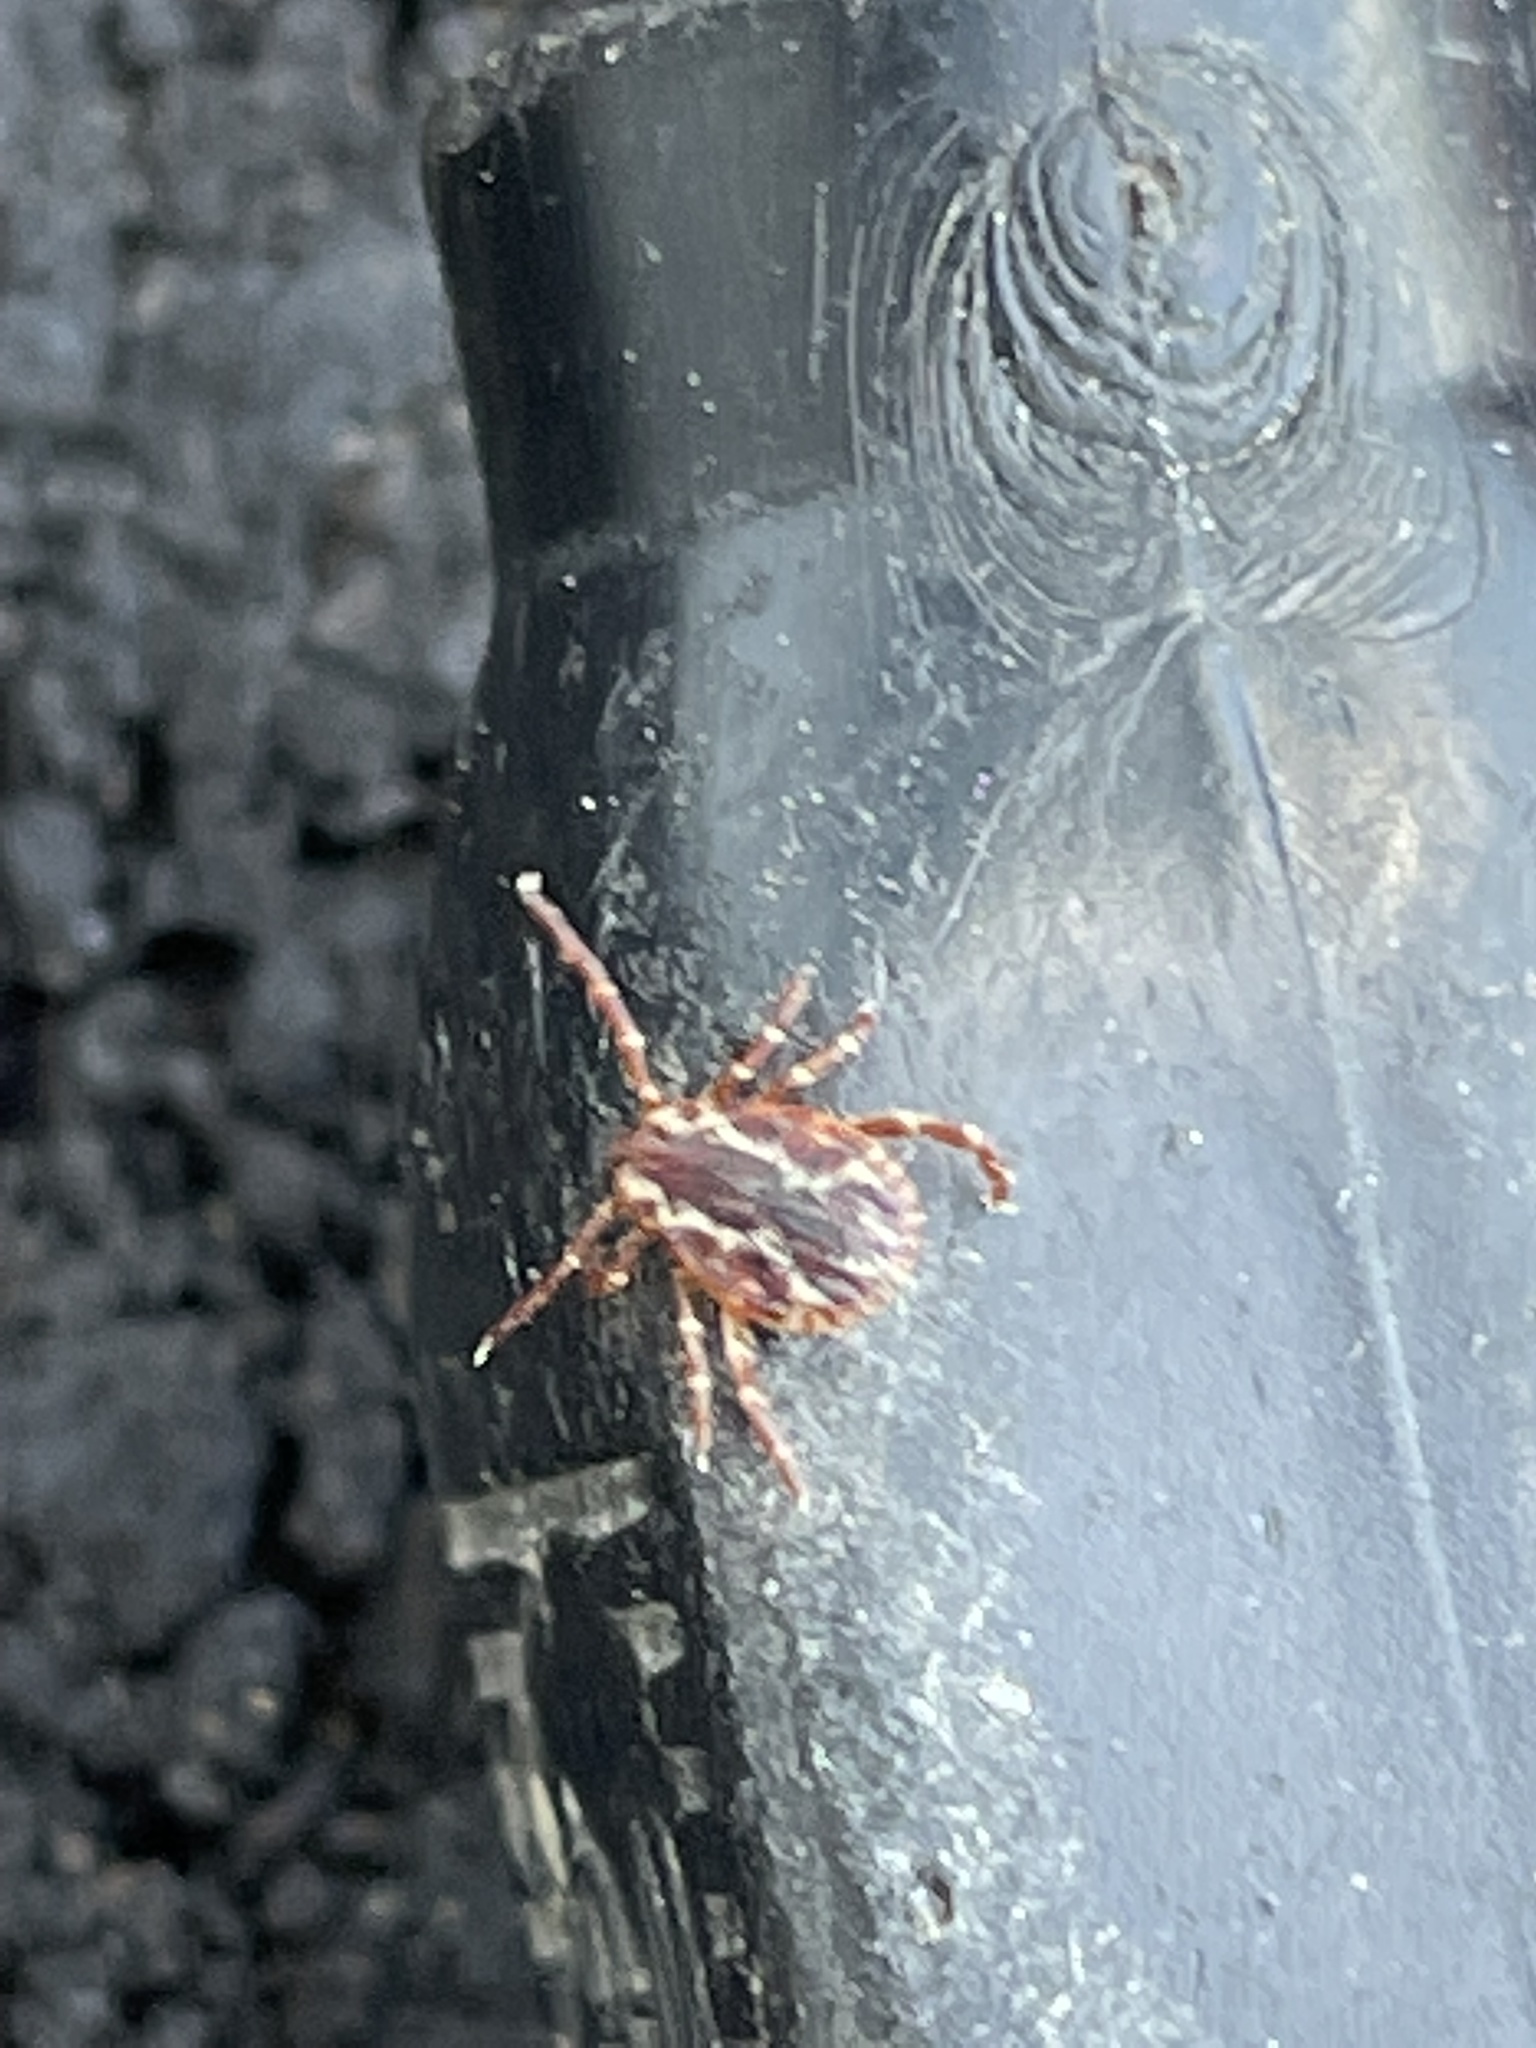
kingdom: Animalia
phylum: Arthropoda
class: Arachnida
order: Ixodida
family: Ixodidae
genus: Dermacentor
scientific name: Dermacentor variabilis
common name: American dog tick
